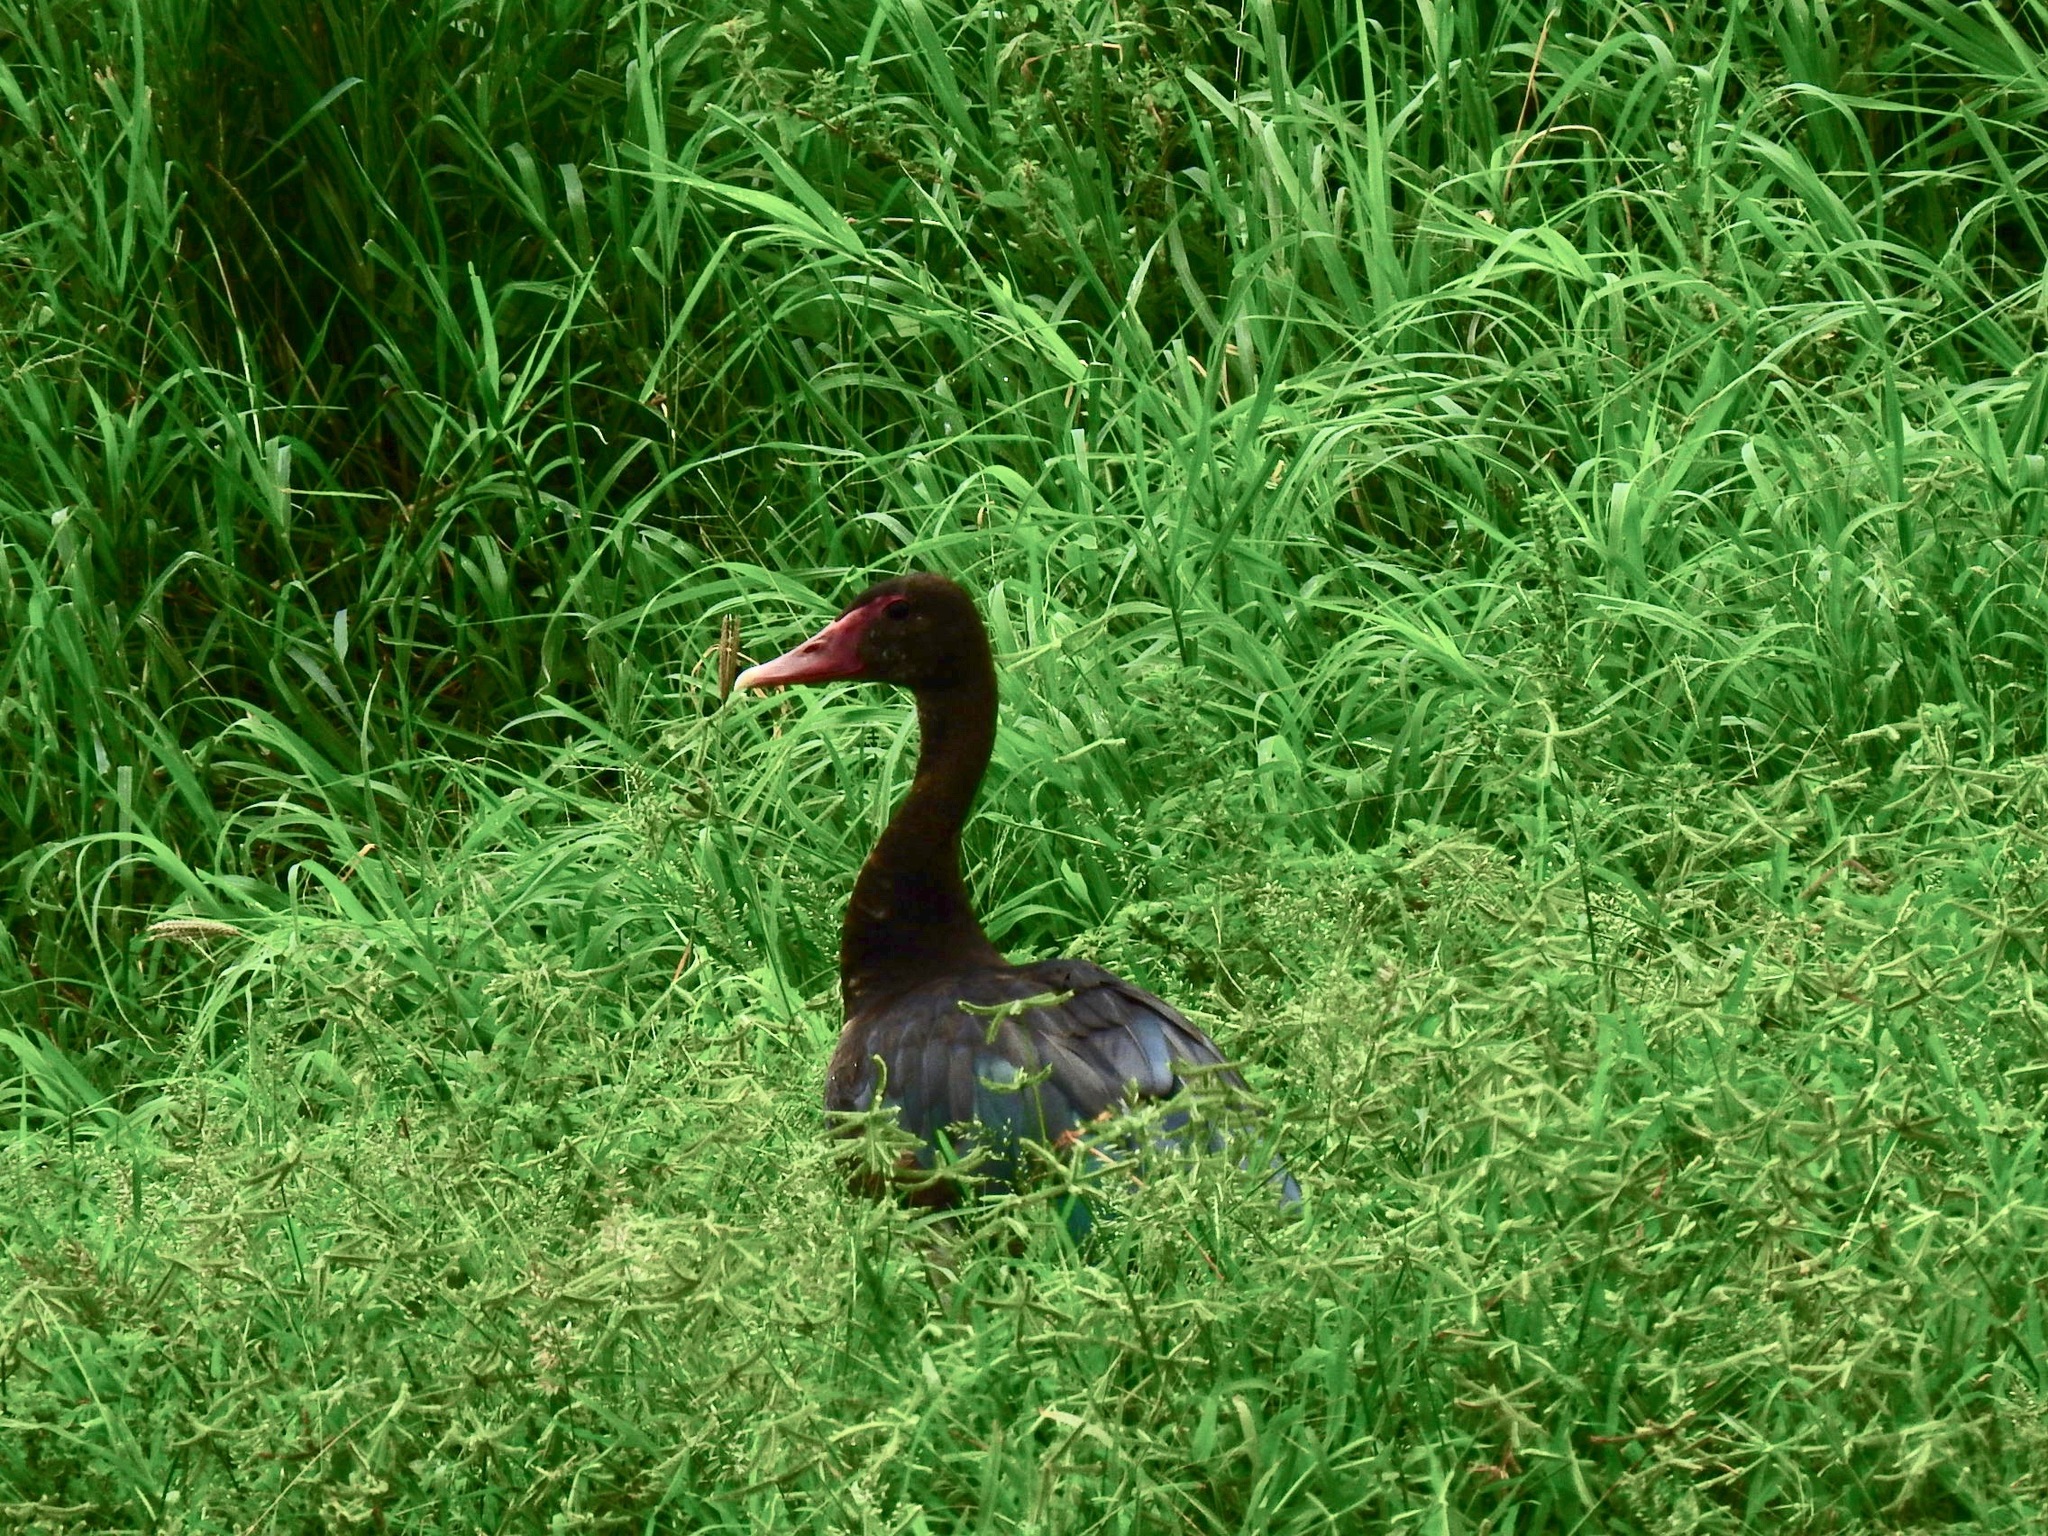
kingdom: Animalia
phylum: Chordata
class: Aves
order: Anseriformes
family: Anatidae
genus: Plectropterus
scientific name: Plectropterus gambensis
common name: Spur-winged goose
